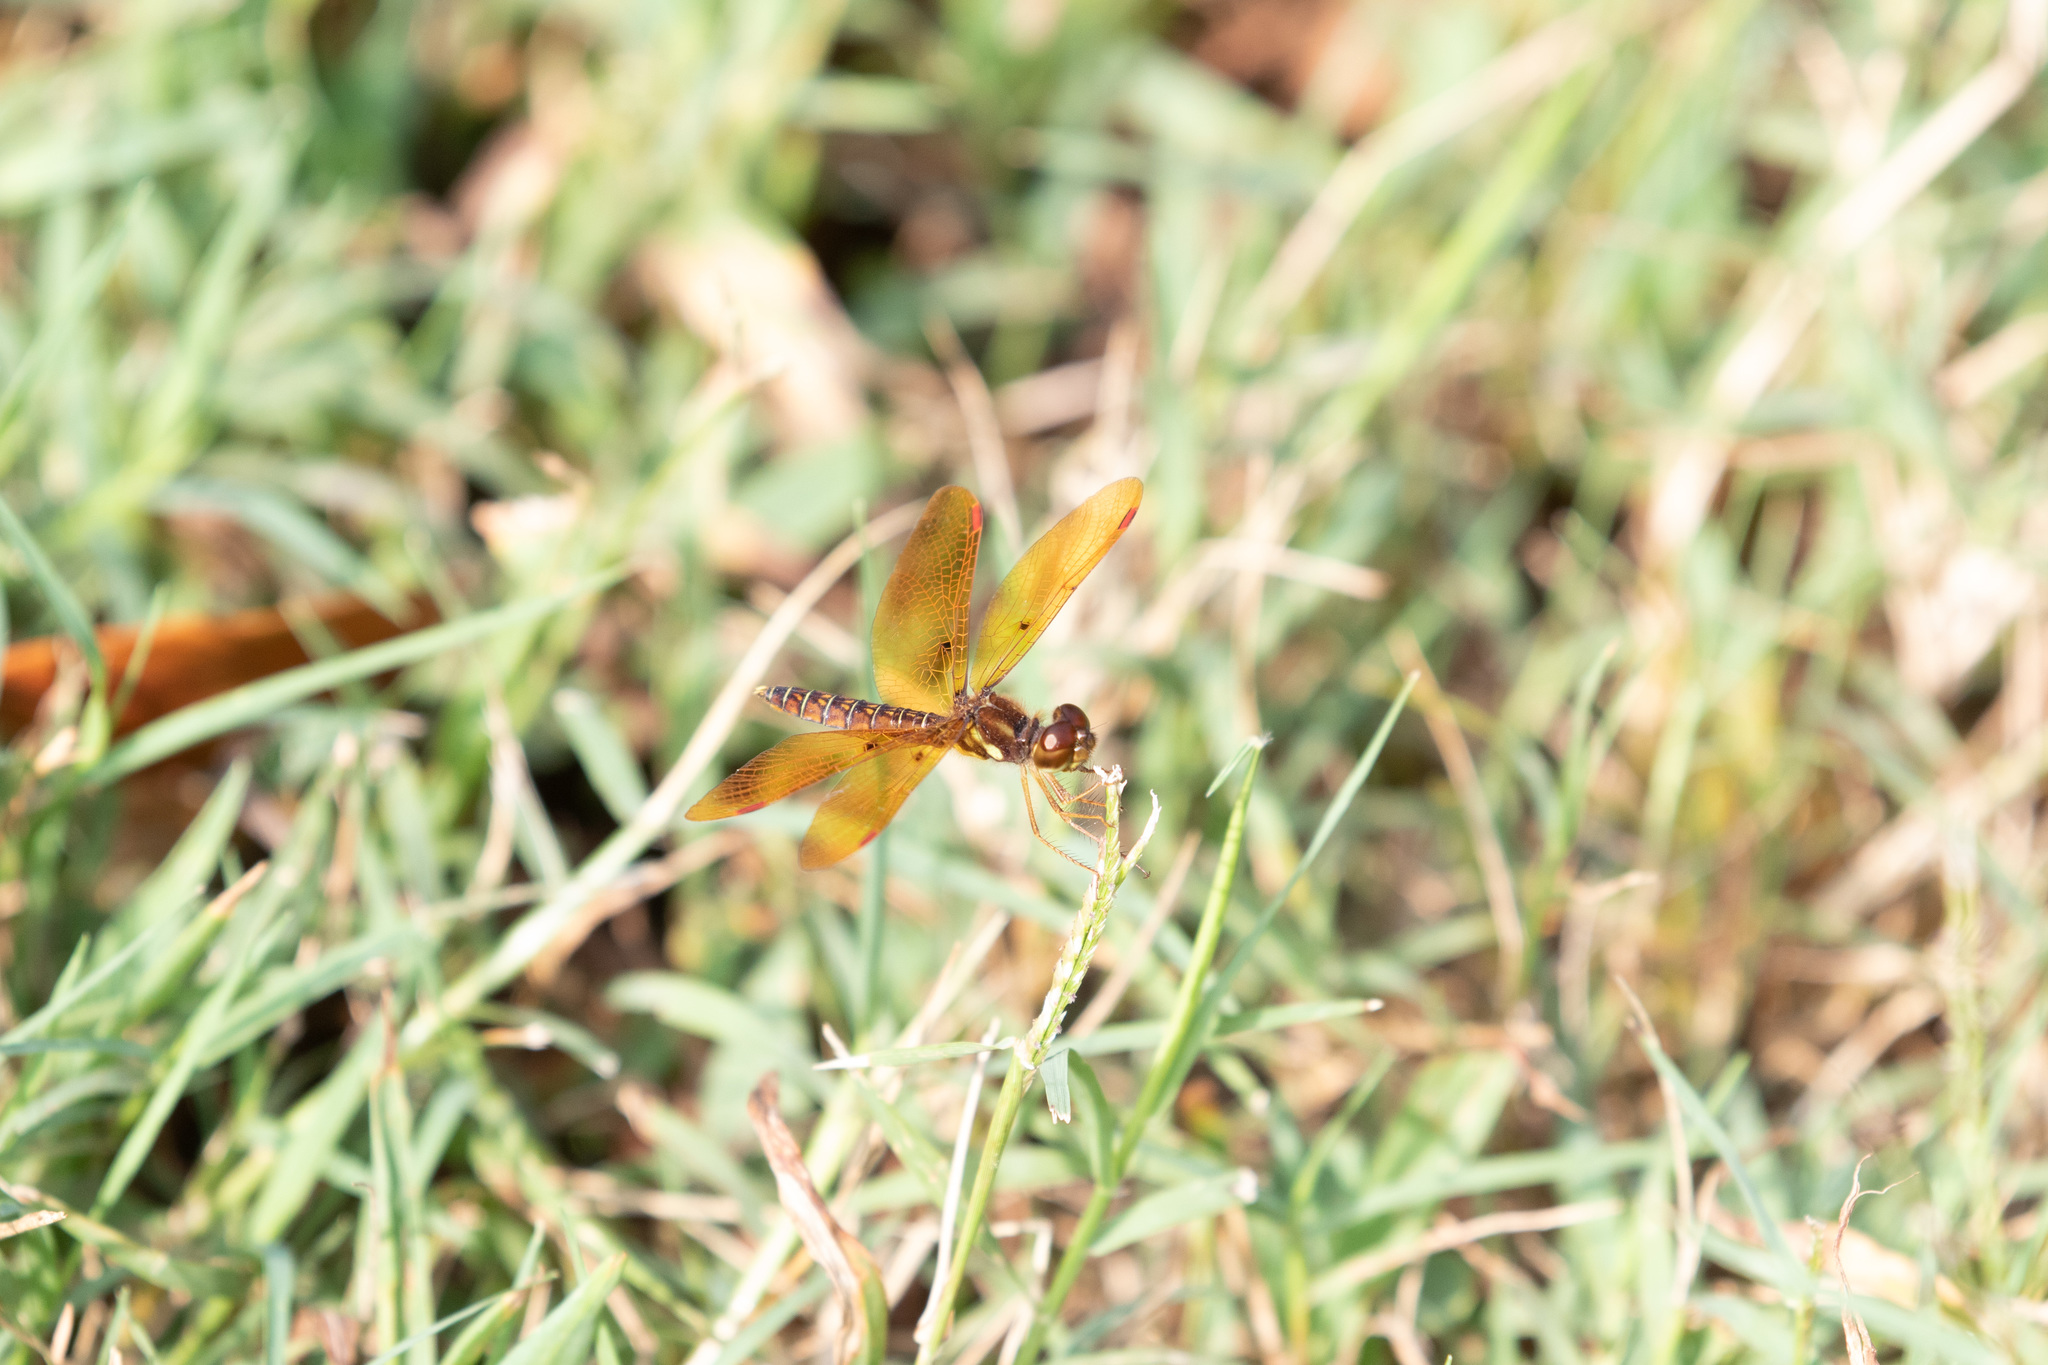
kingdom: Animalia
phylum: Arthropoda
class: Insecta
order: Odonata
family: Libellulidae
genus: Perithemis
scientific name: Perithemis tenera
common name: Eastern amberwing
